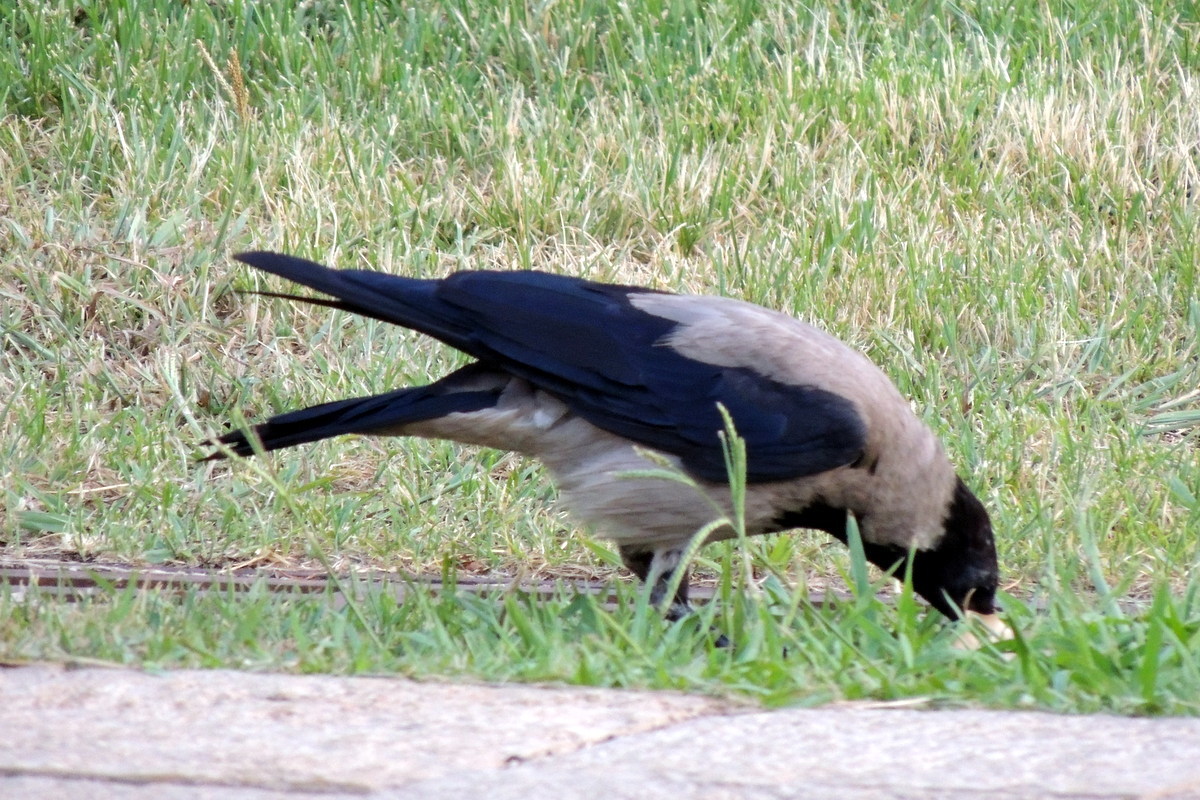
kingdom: Animalia
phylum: Chordata
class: Aves
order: Passeriformes
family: Corvidae
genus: Corvus
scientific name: Corvus cornix
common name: Hooded crow
